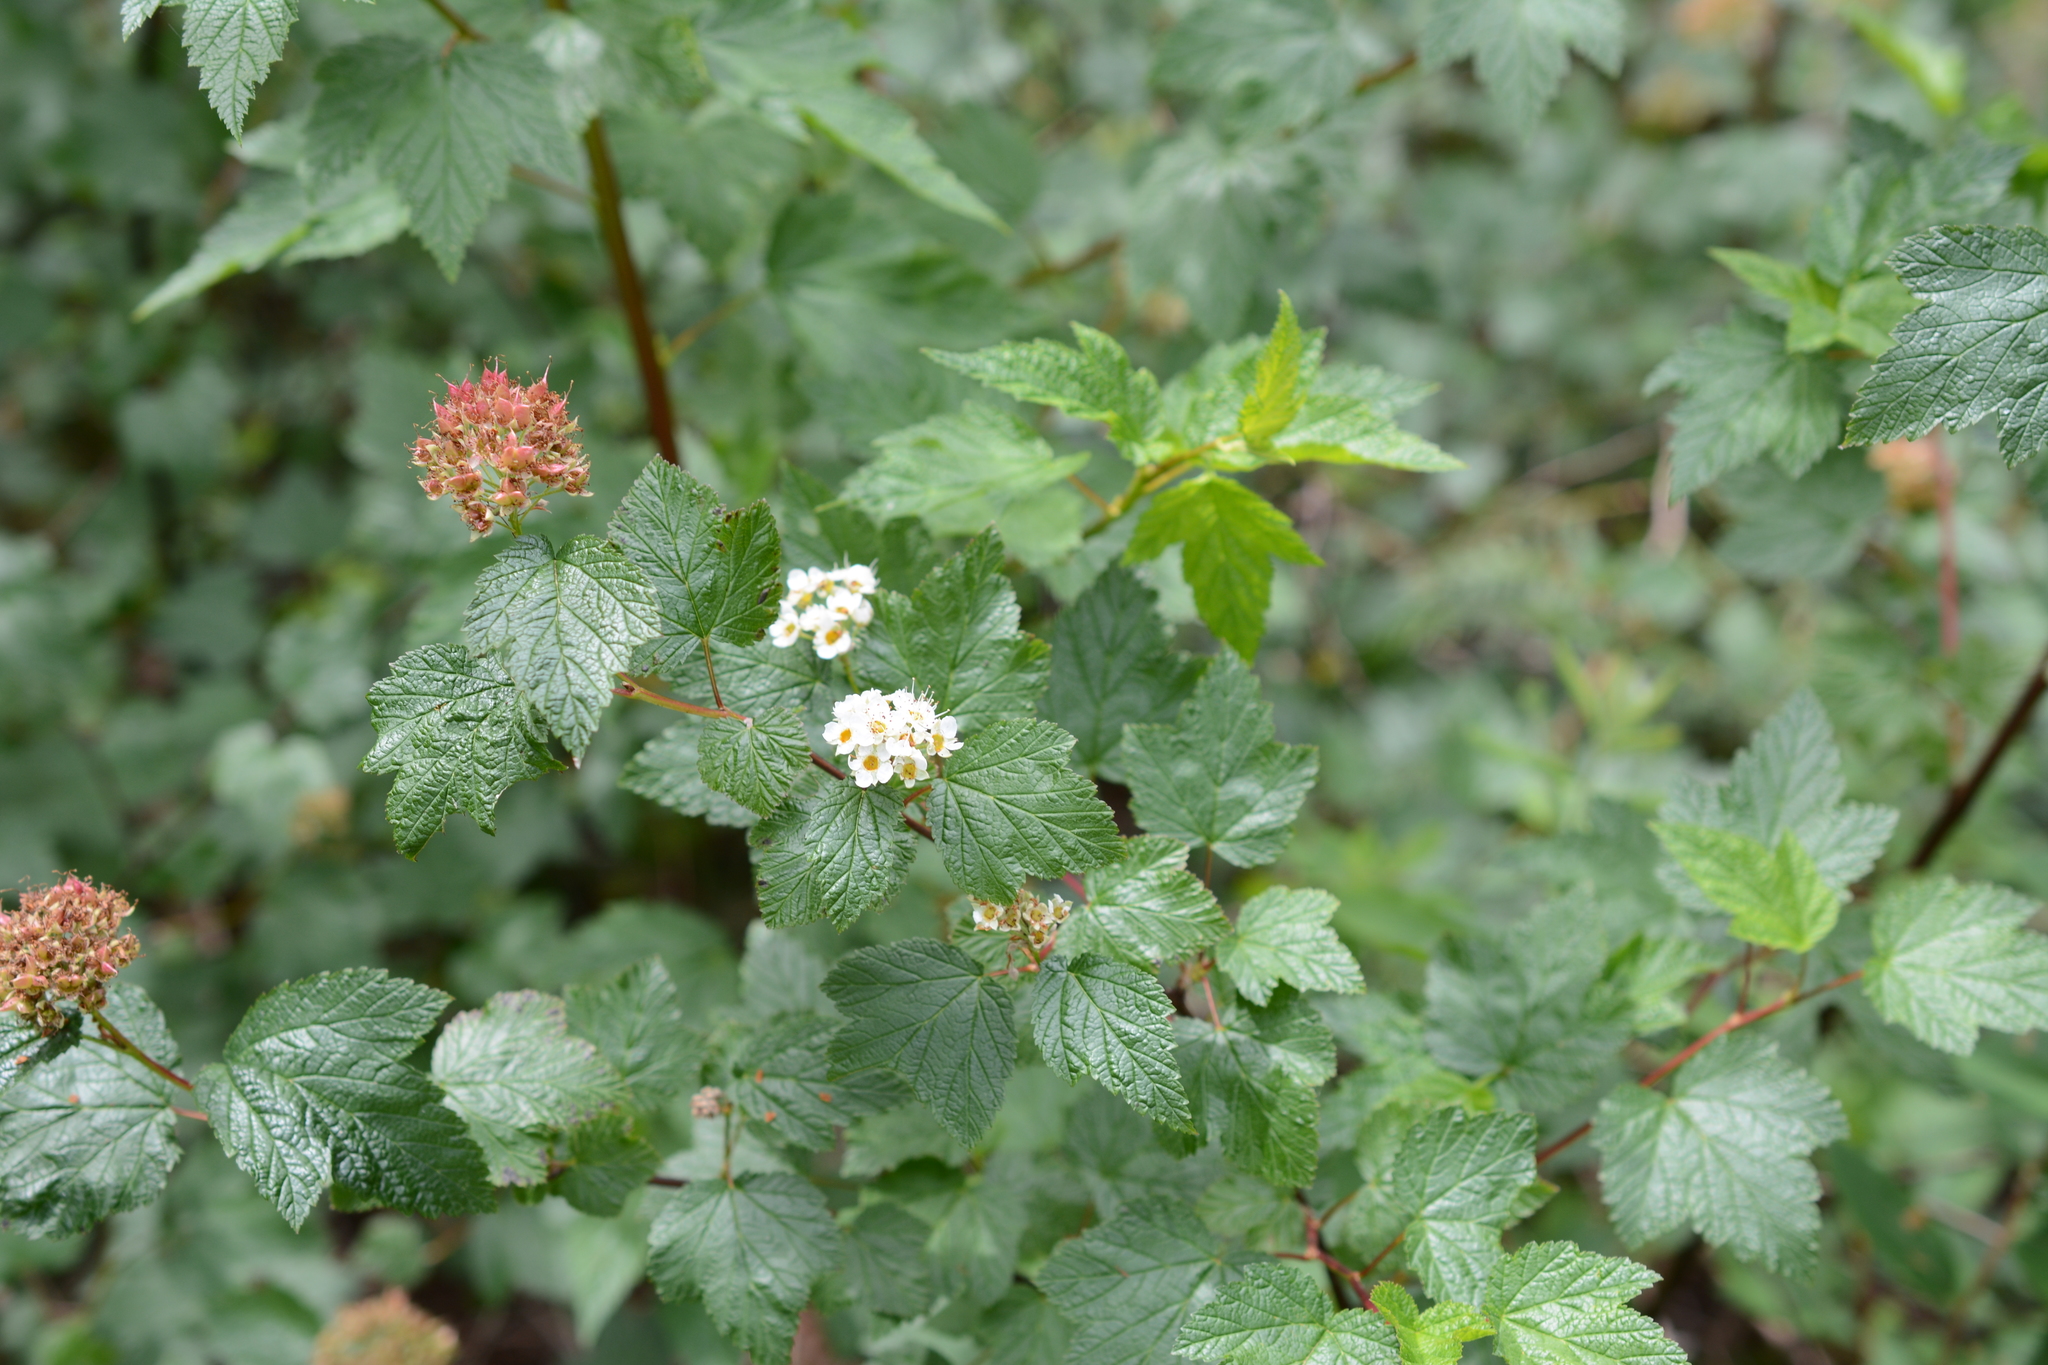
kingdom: Plantae
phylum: Tracheophyta
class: Magnoliopsida
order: Rosales
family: Rosaceae
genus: Physocarpus
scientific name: Physocarpus capitatus
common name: Pacific ninebark
